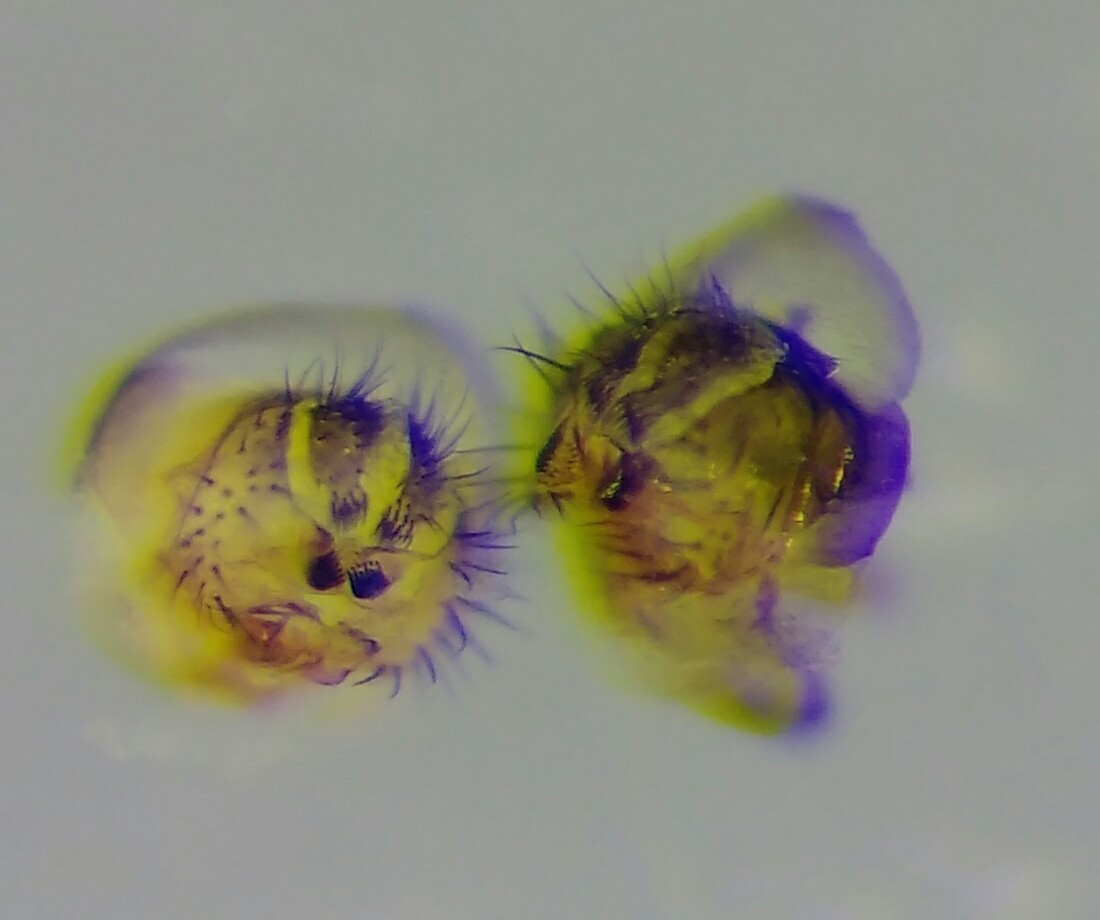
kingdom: Animalia
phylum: Arthropoda
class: Insecta
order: Diptera
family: Drosophilidae
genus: Drosophila
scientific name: Drosophila subobscura
